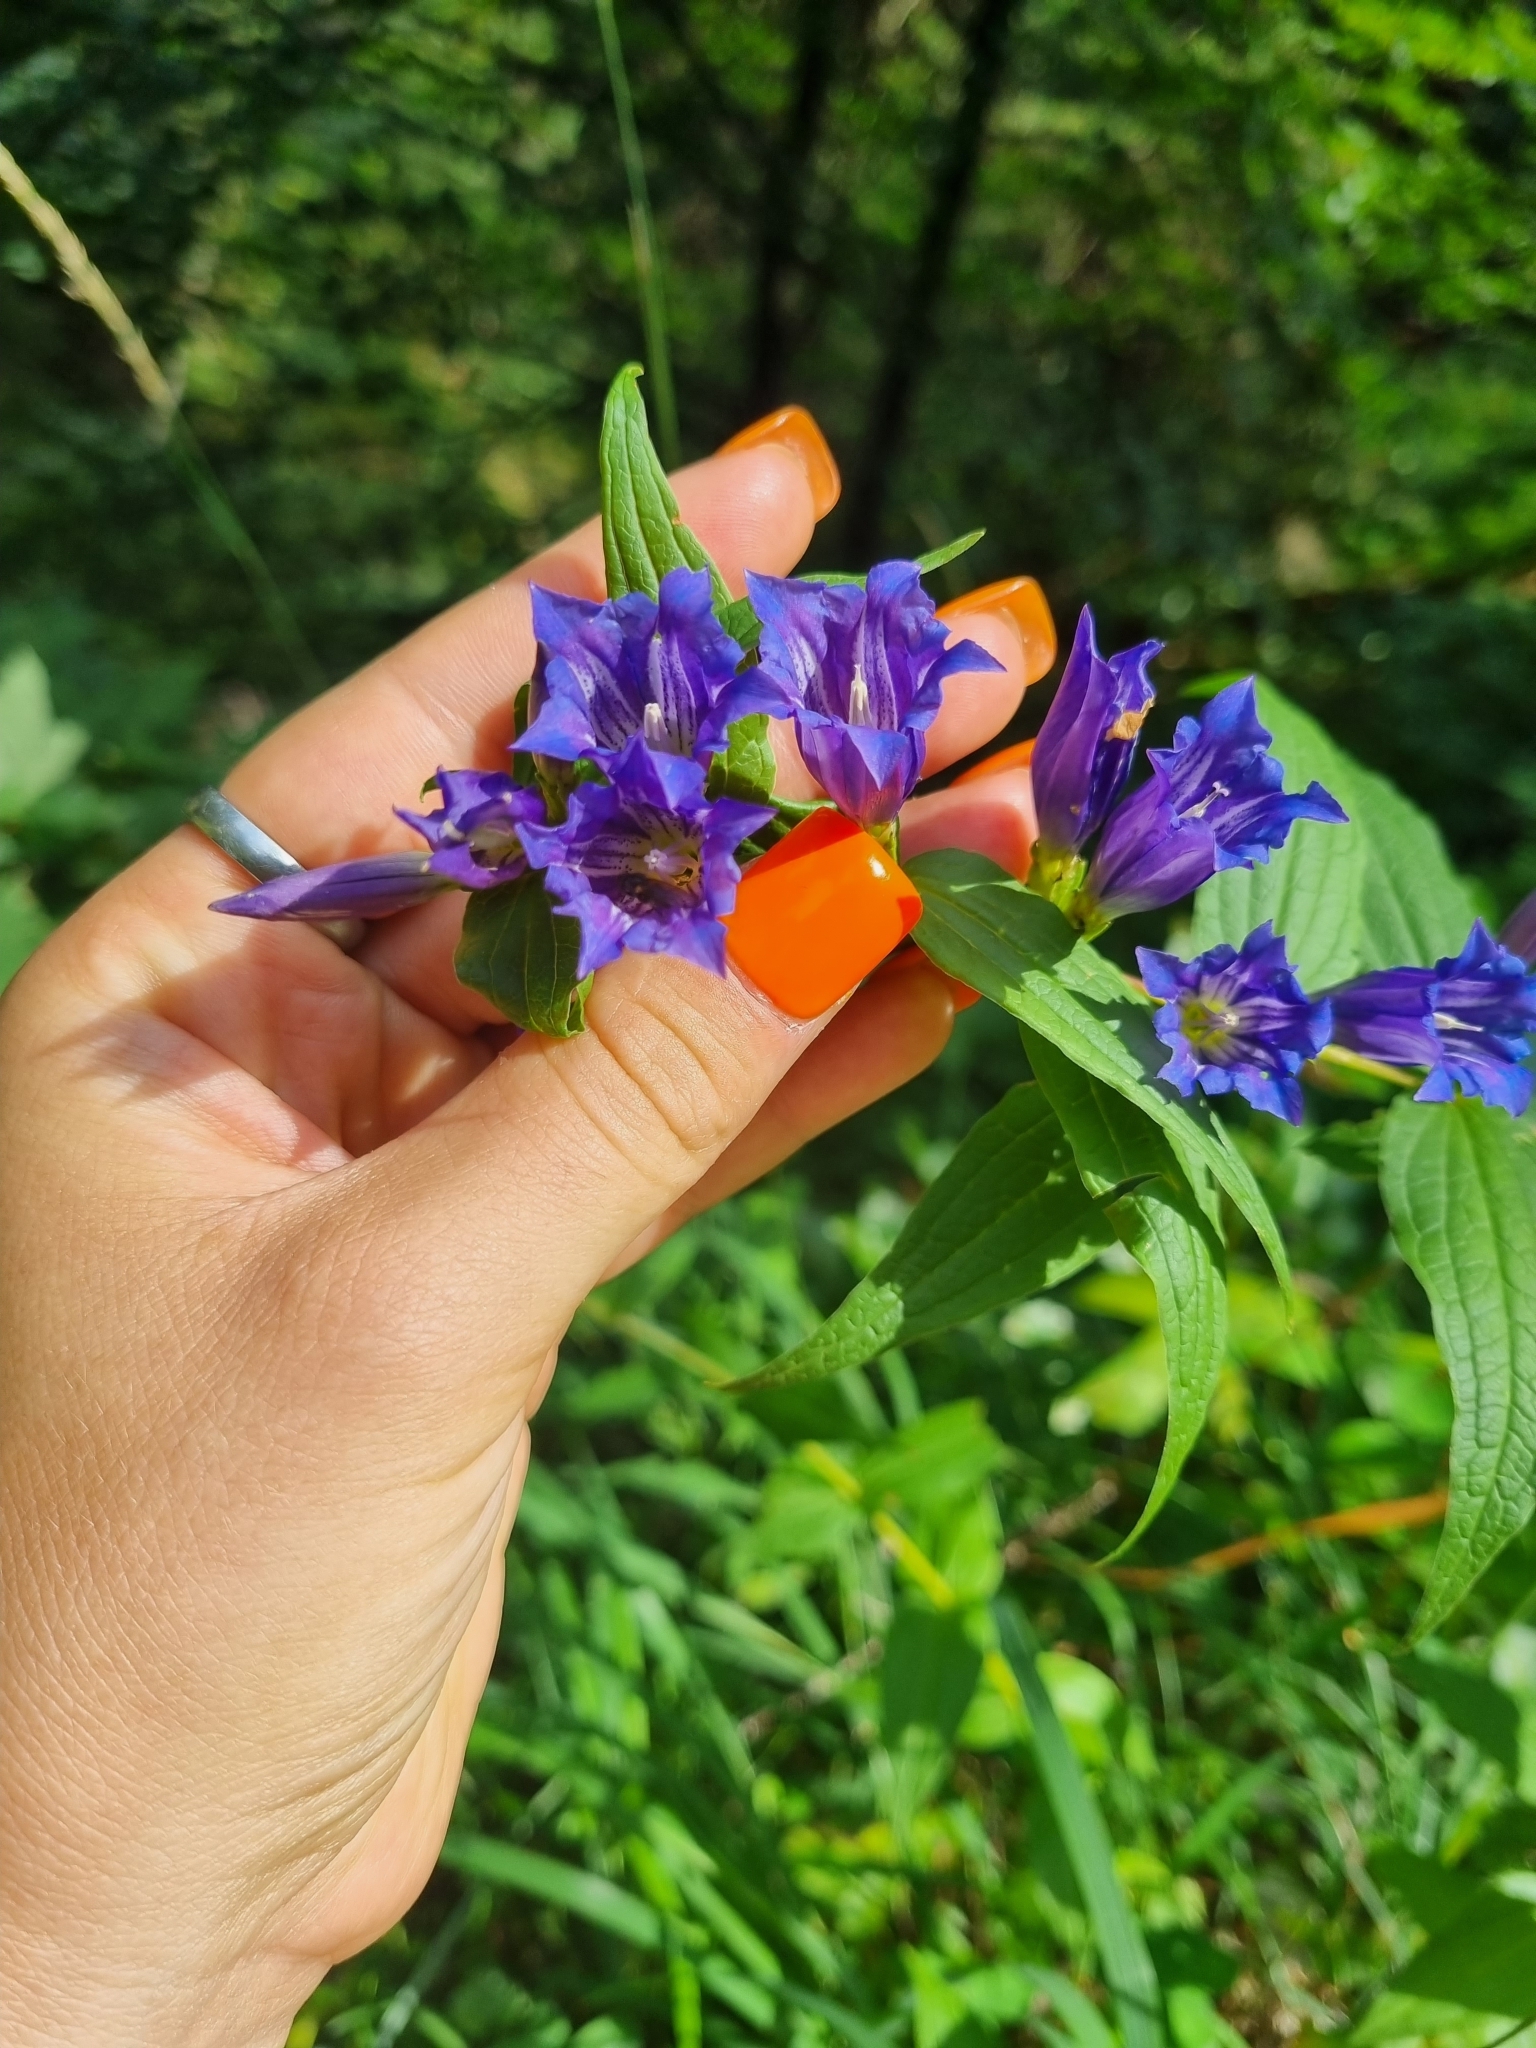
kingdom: Plantae
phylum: Tracheophyta
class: Magnoliopsida
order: Gentianales
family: Gentianaceae
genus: Gentiana
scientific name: Gentiana asclepiadea
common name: Willow gentian
